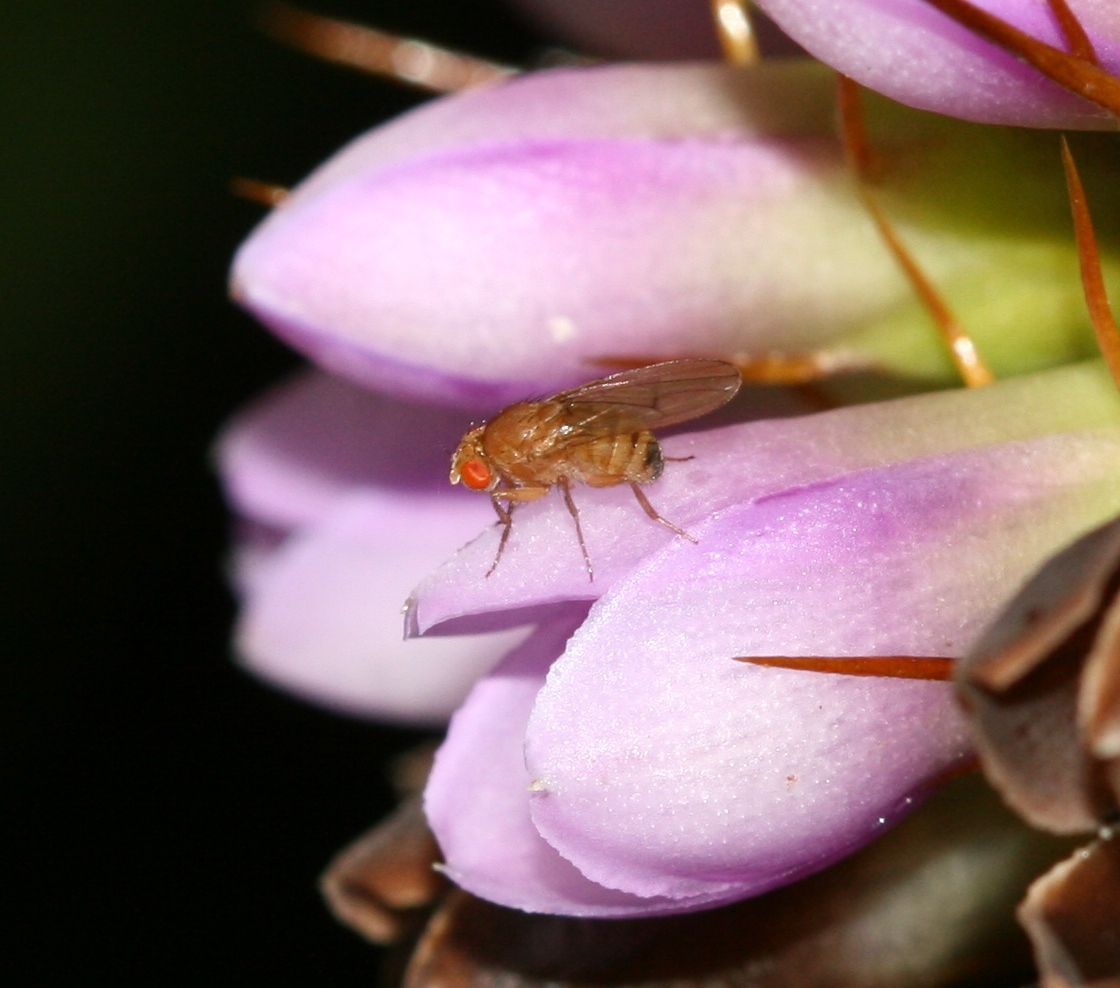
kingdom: Animalia
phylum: Arthropoda
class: Insecta
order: Diptera
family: Drosophilidae
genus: Drosophila
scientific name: Drosophila immigrans
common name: Pomace fly
